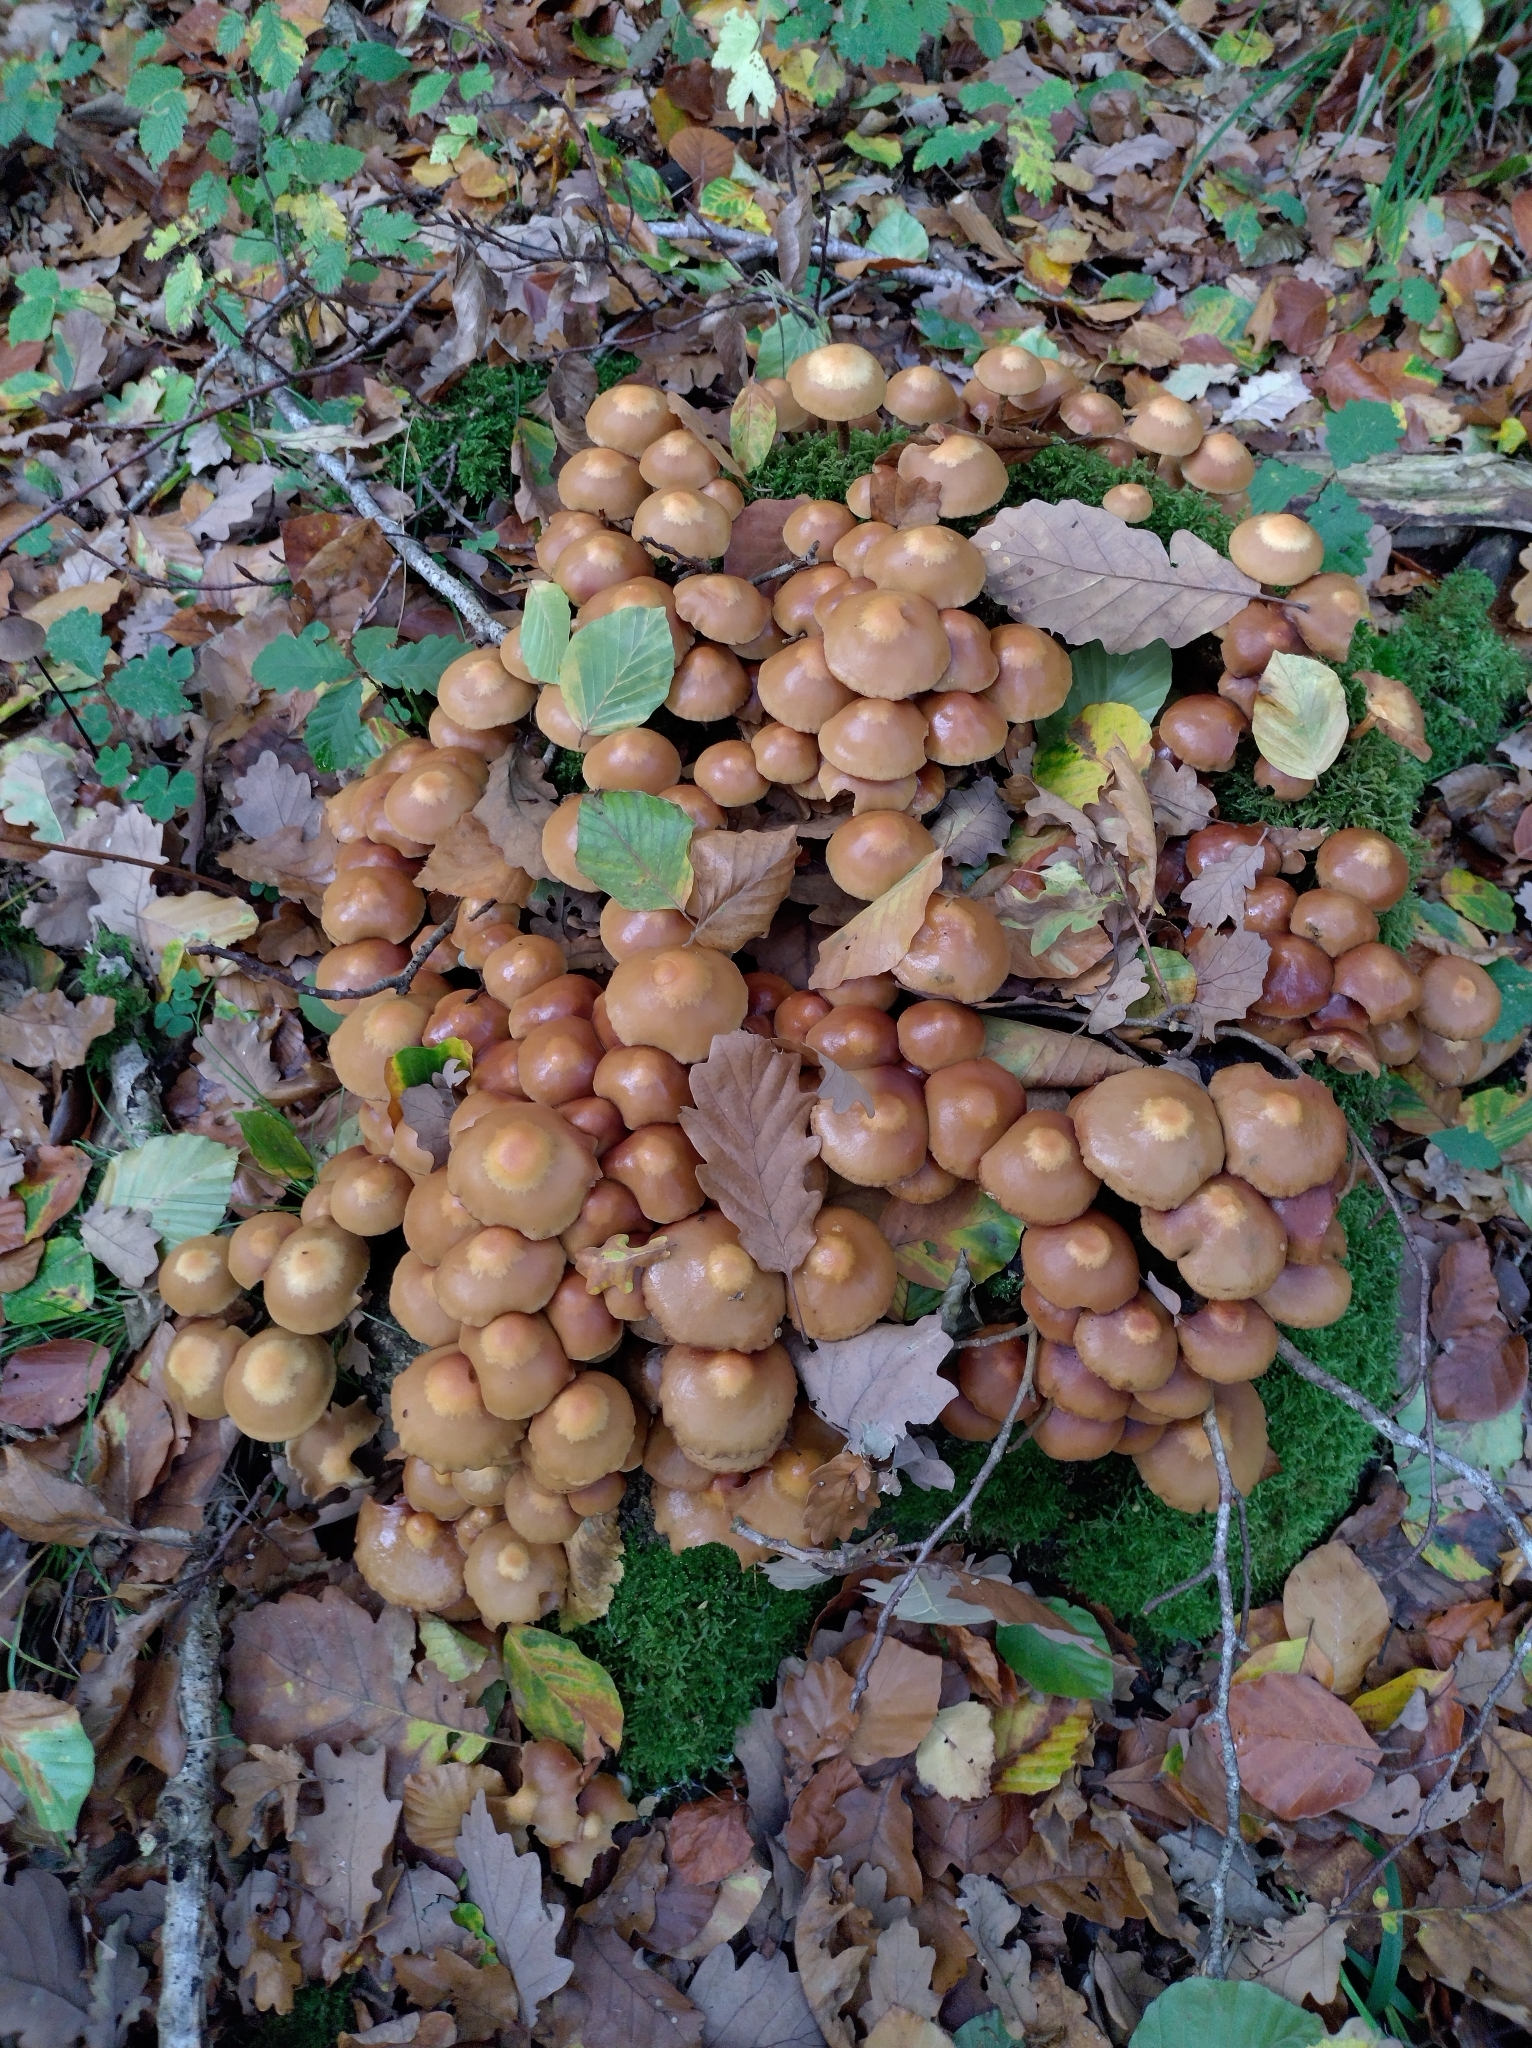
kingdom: Fungi
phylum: Basidiomycota
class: Agaricomycetes
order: Agaricales
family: Strophariaceae
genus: Kuehneromyces
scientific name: Kuehneromyces mutabilis
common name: Sheathed woodtuft
